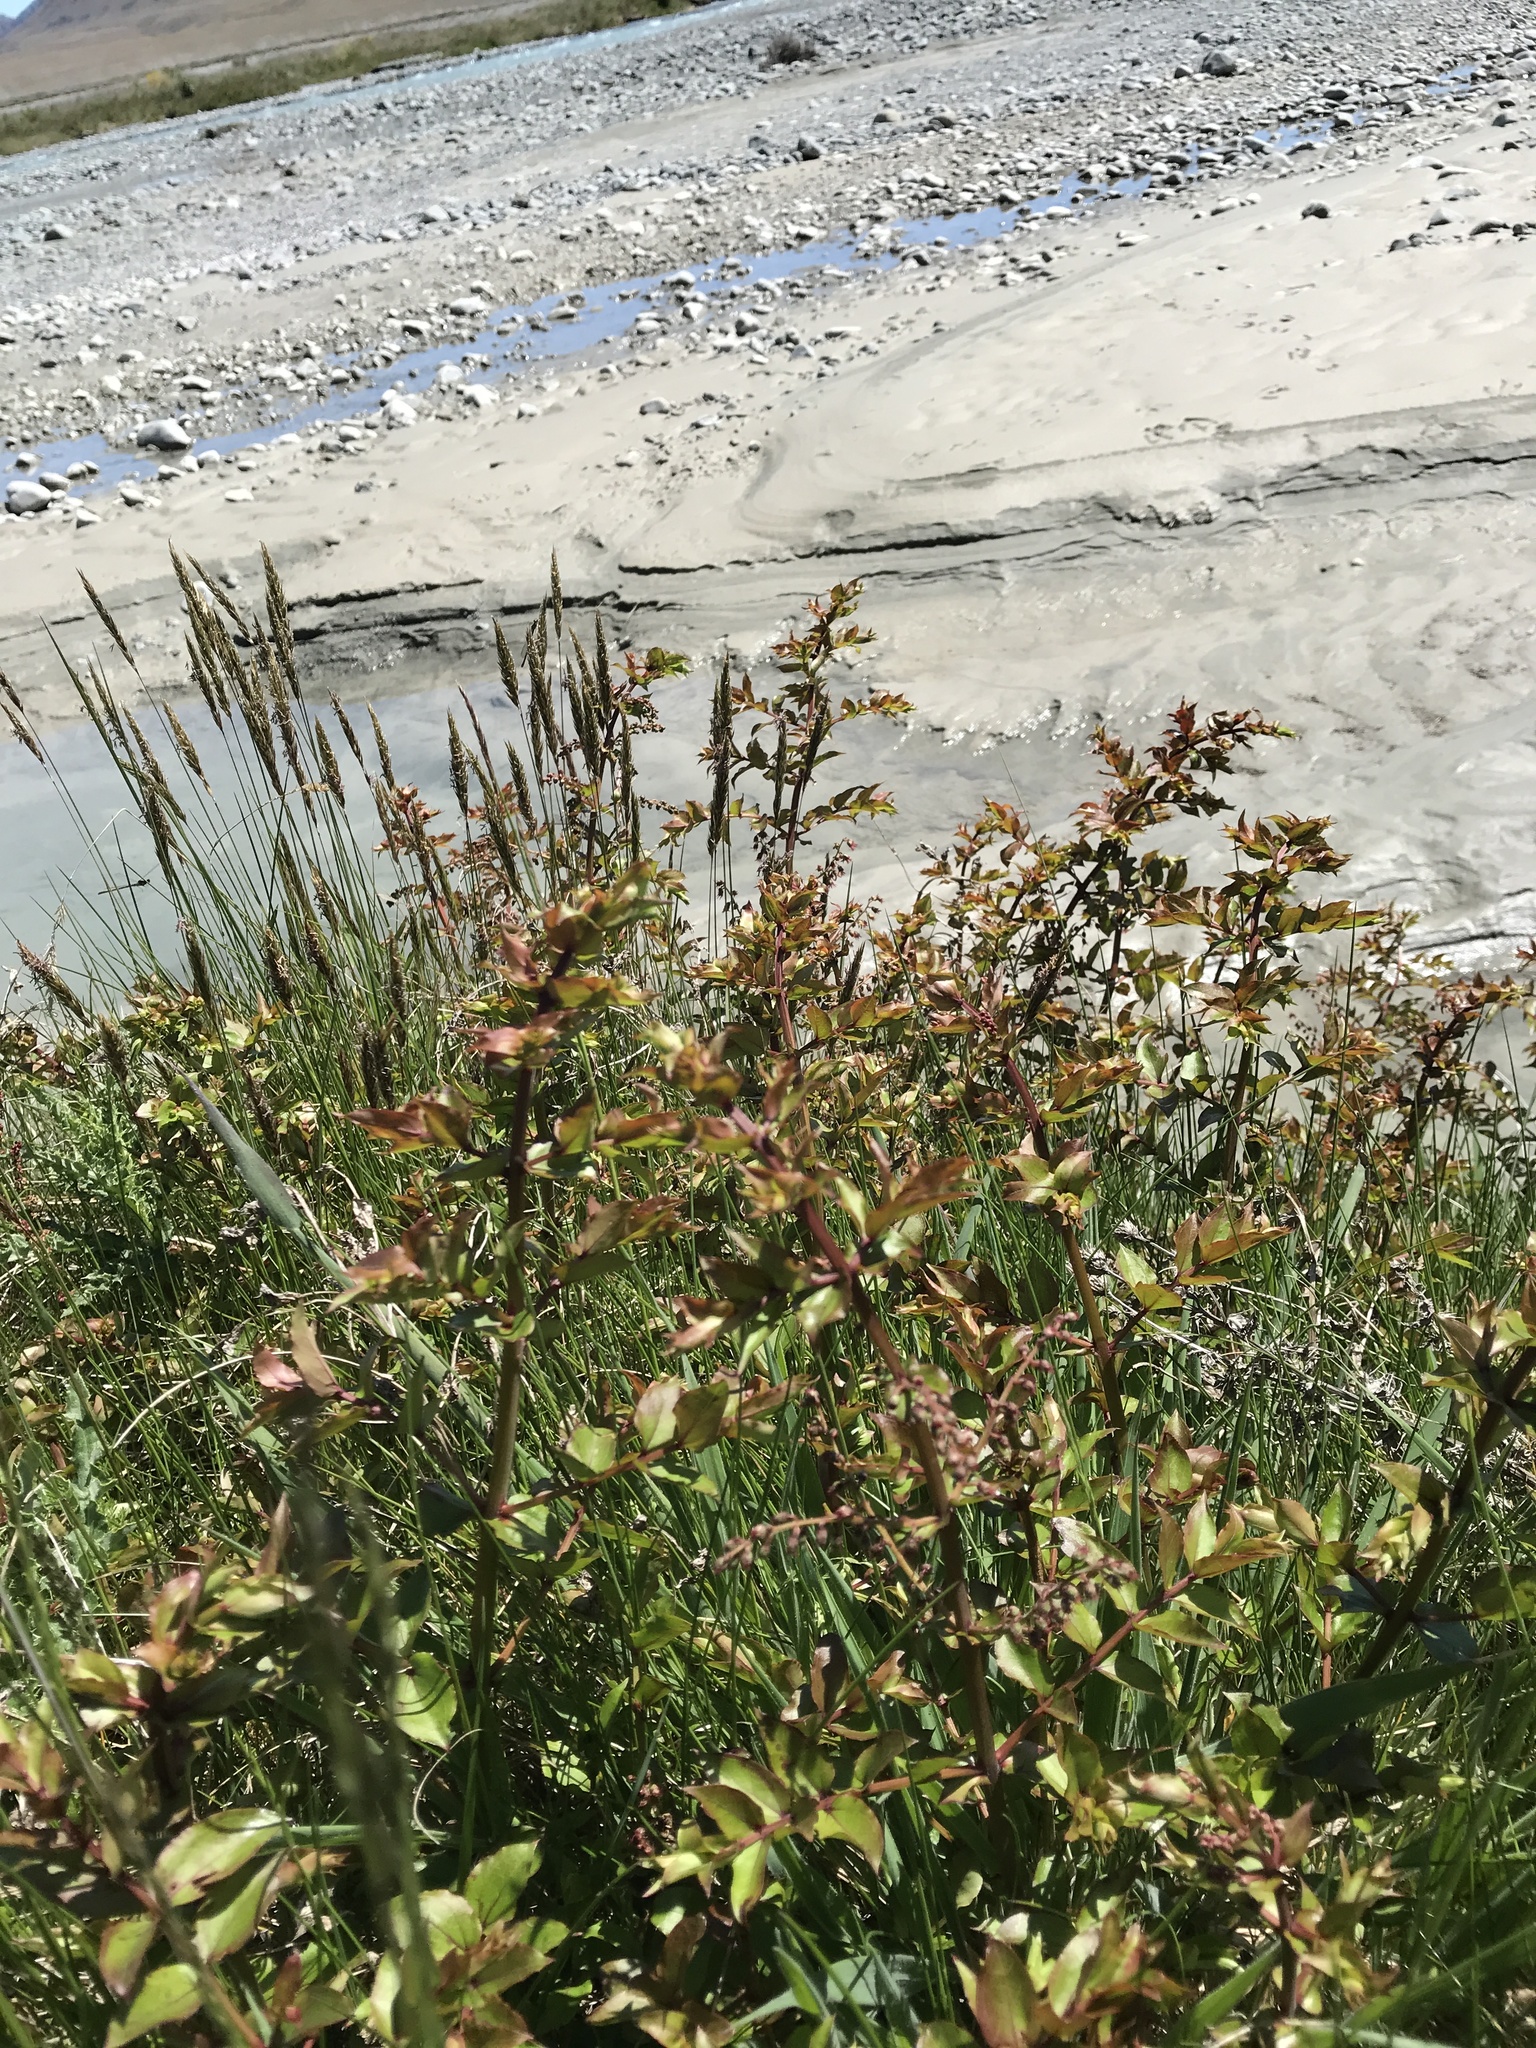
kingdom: Plantae
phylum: Tracheophyta
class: Magnoliopsida
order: Cucurbitales
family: Coriariaceae
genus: Coriaria
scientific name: Coriaria sarmentosa
